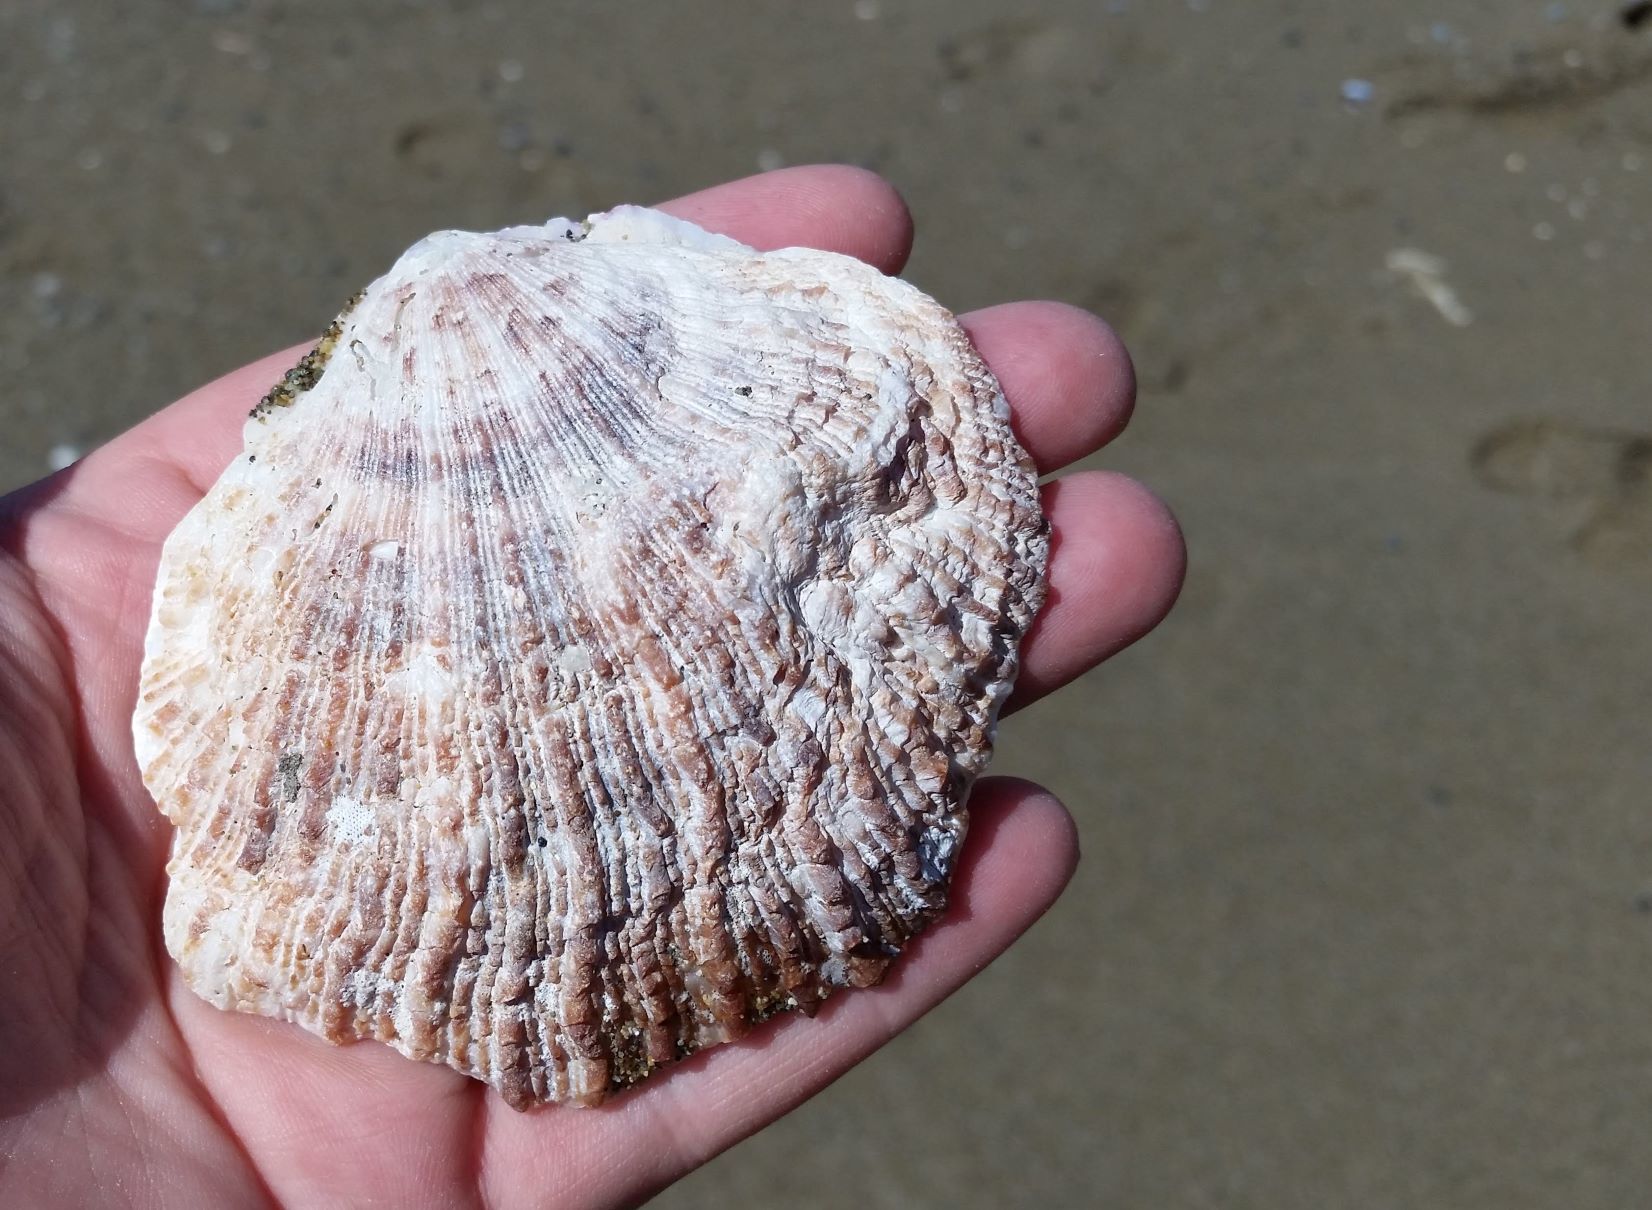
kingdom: Animalia
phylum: Mollusca
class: Bivalvia
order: Pectinida
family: Pectinidae
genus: Crassadoma
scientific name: Crassadoma gigantea
